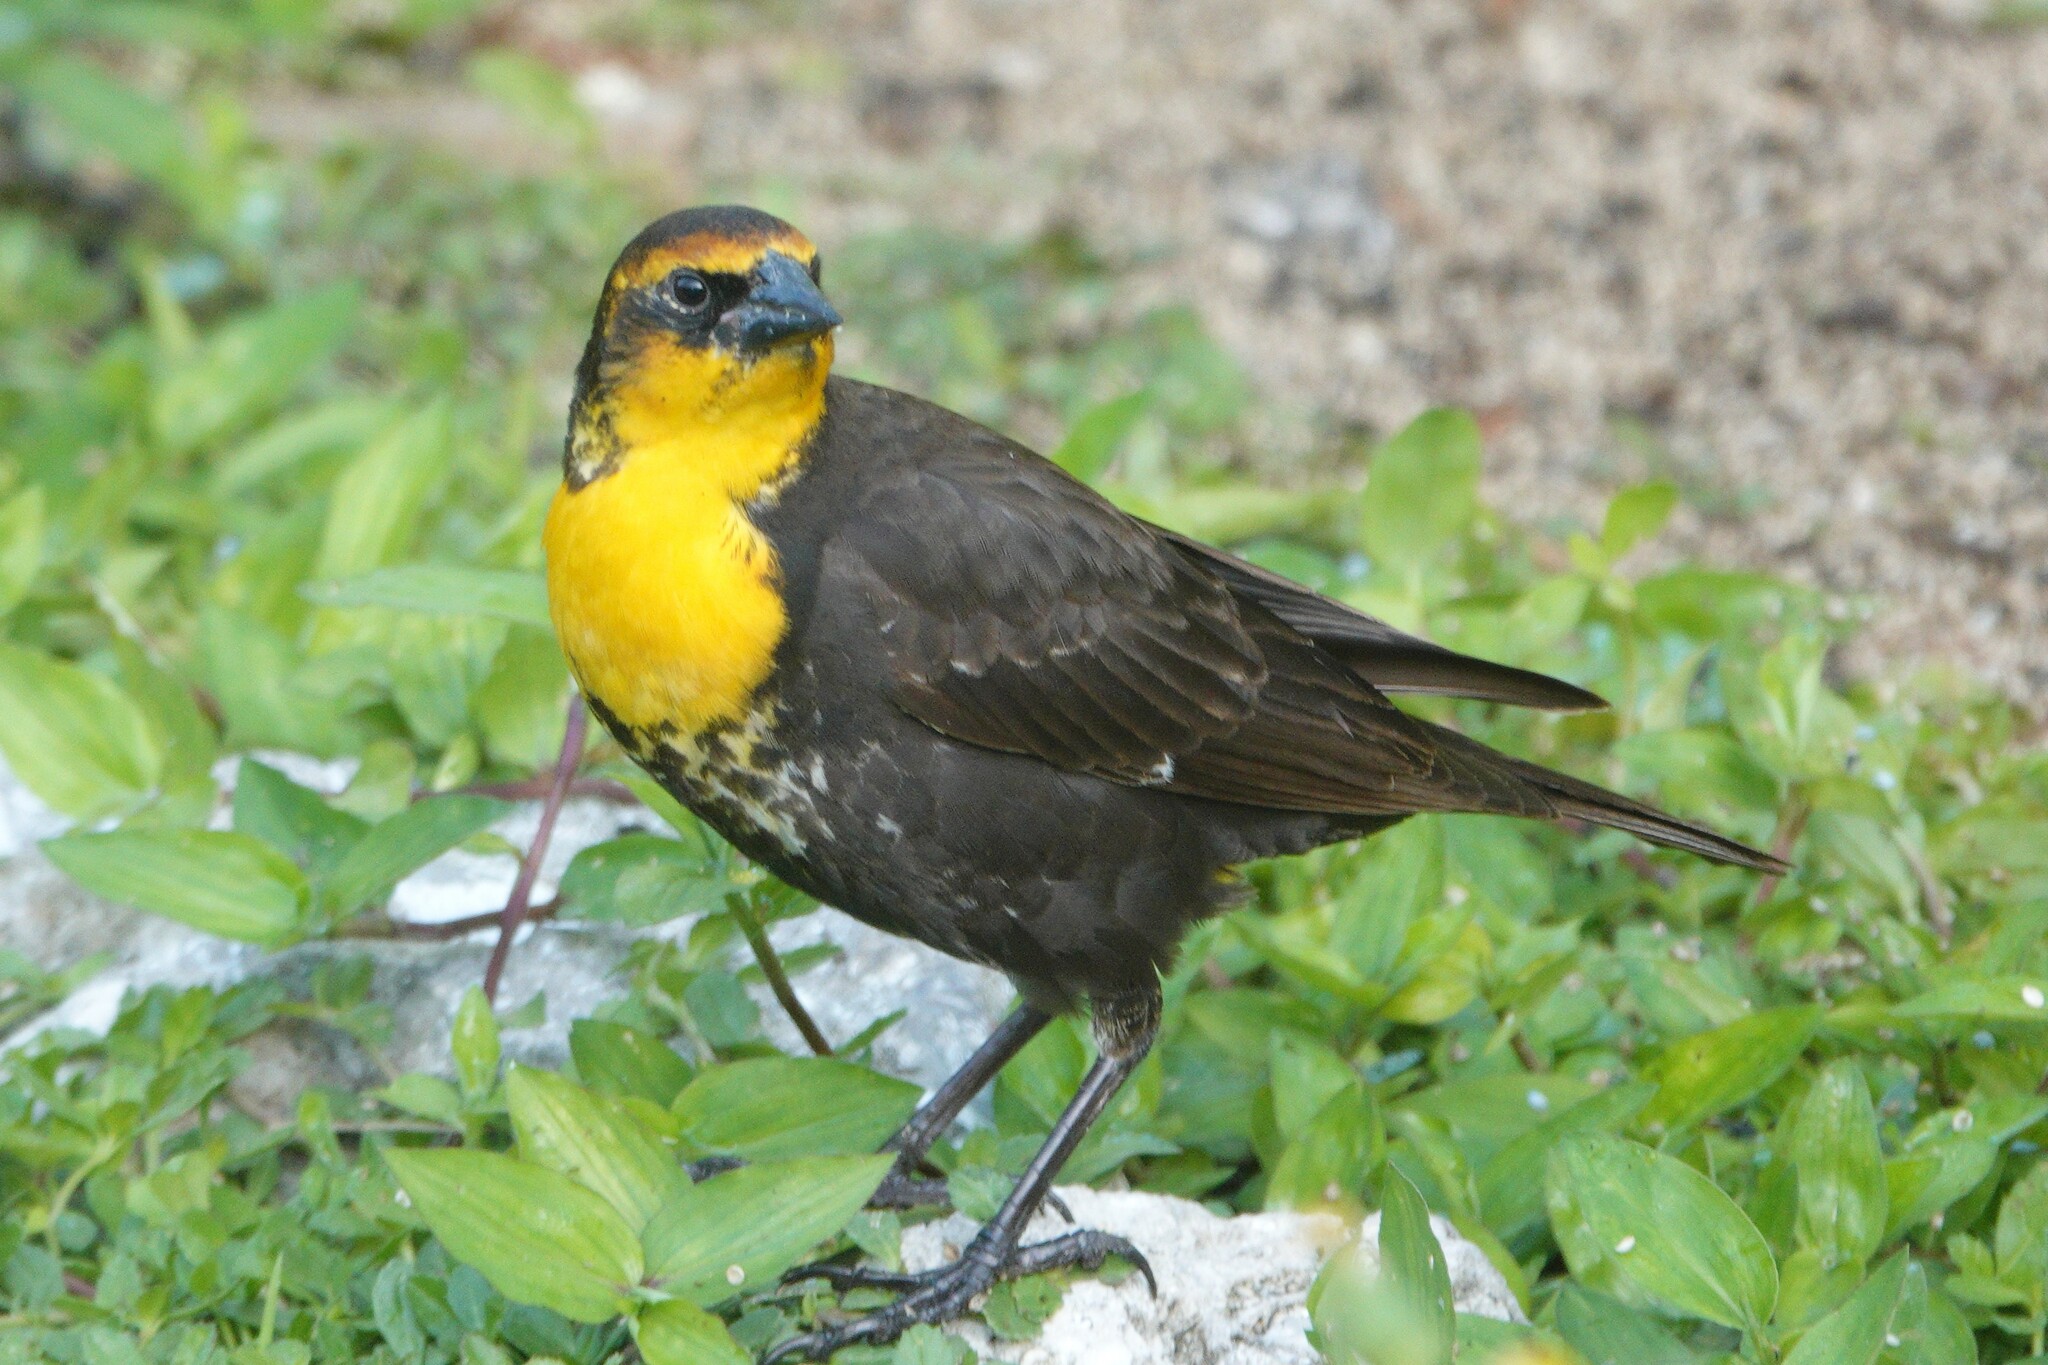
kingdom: Animalia
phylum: Chordata
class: Aves
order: Passeriformes
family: Icteridae
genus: Xanthocephalus
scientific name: Xanthocephalus xanthocephalus
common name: Yellow-headed blackbird
